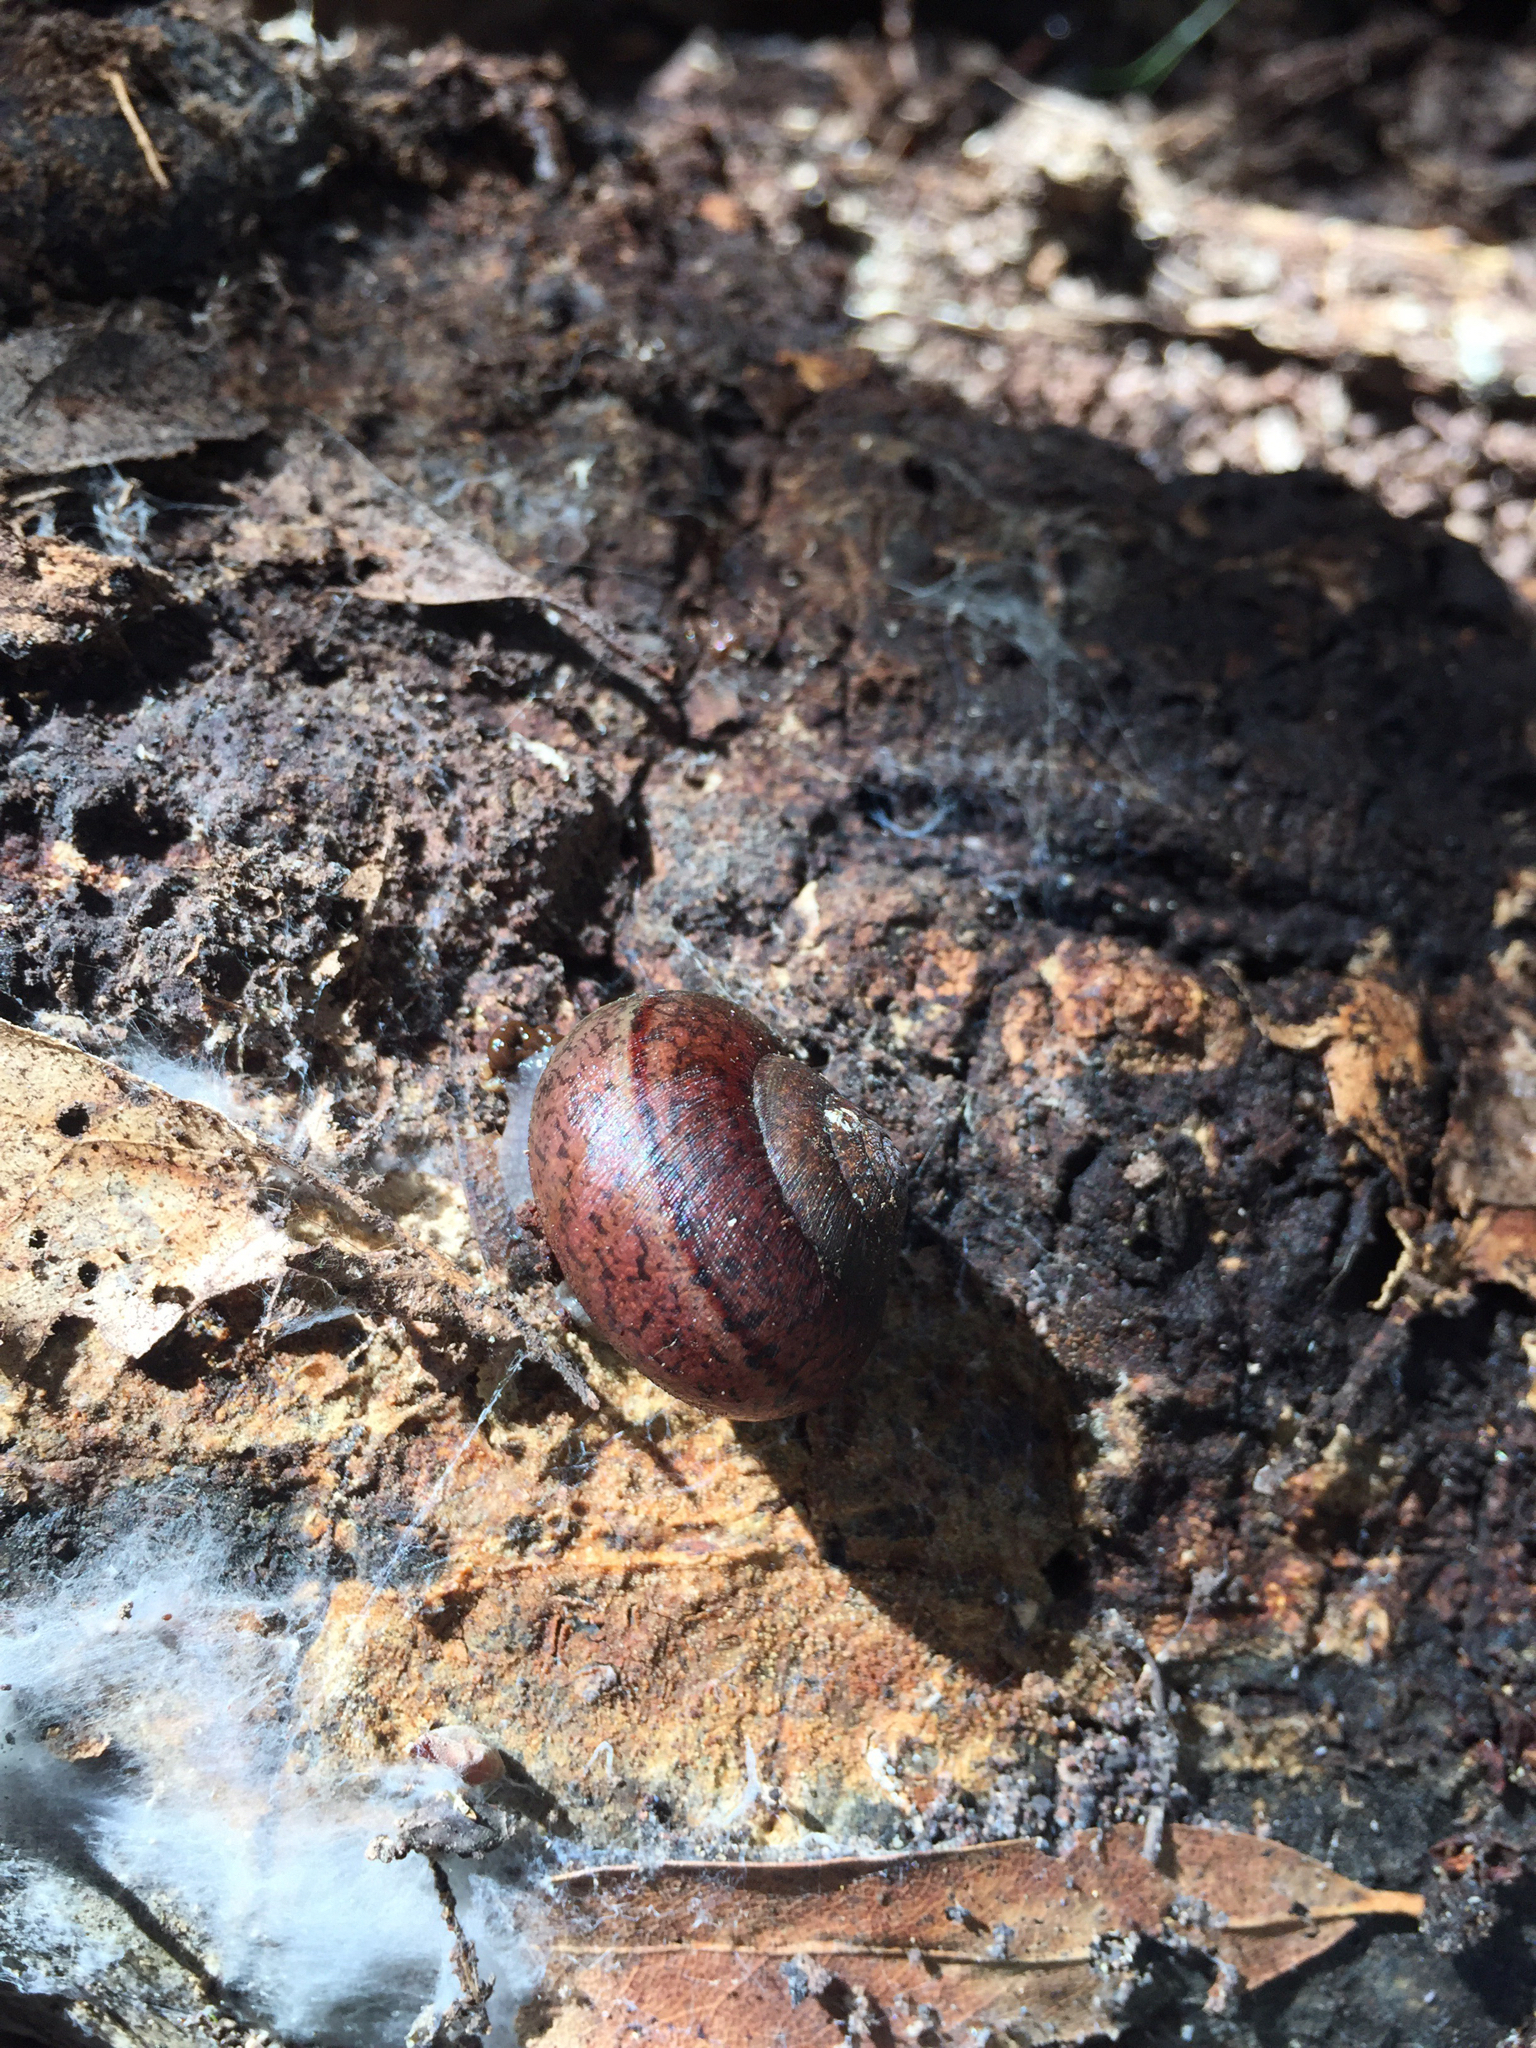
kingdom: Animalia
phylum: Mollusca
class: Gastropoda
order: Stylommatophora
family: Xanthonychidae
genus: Helminthoglypta
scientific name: Helminthoglypta nickliniana
